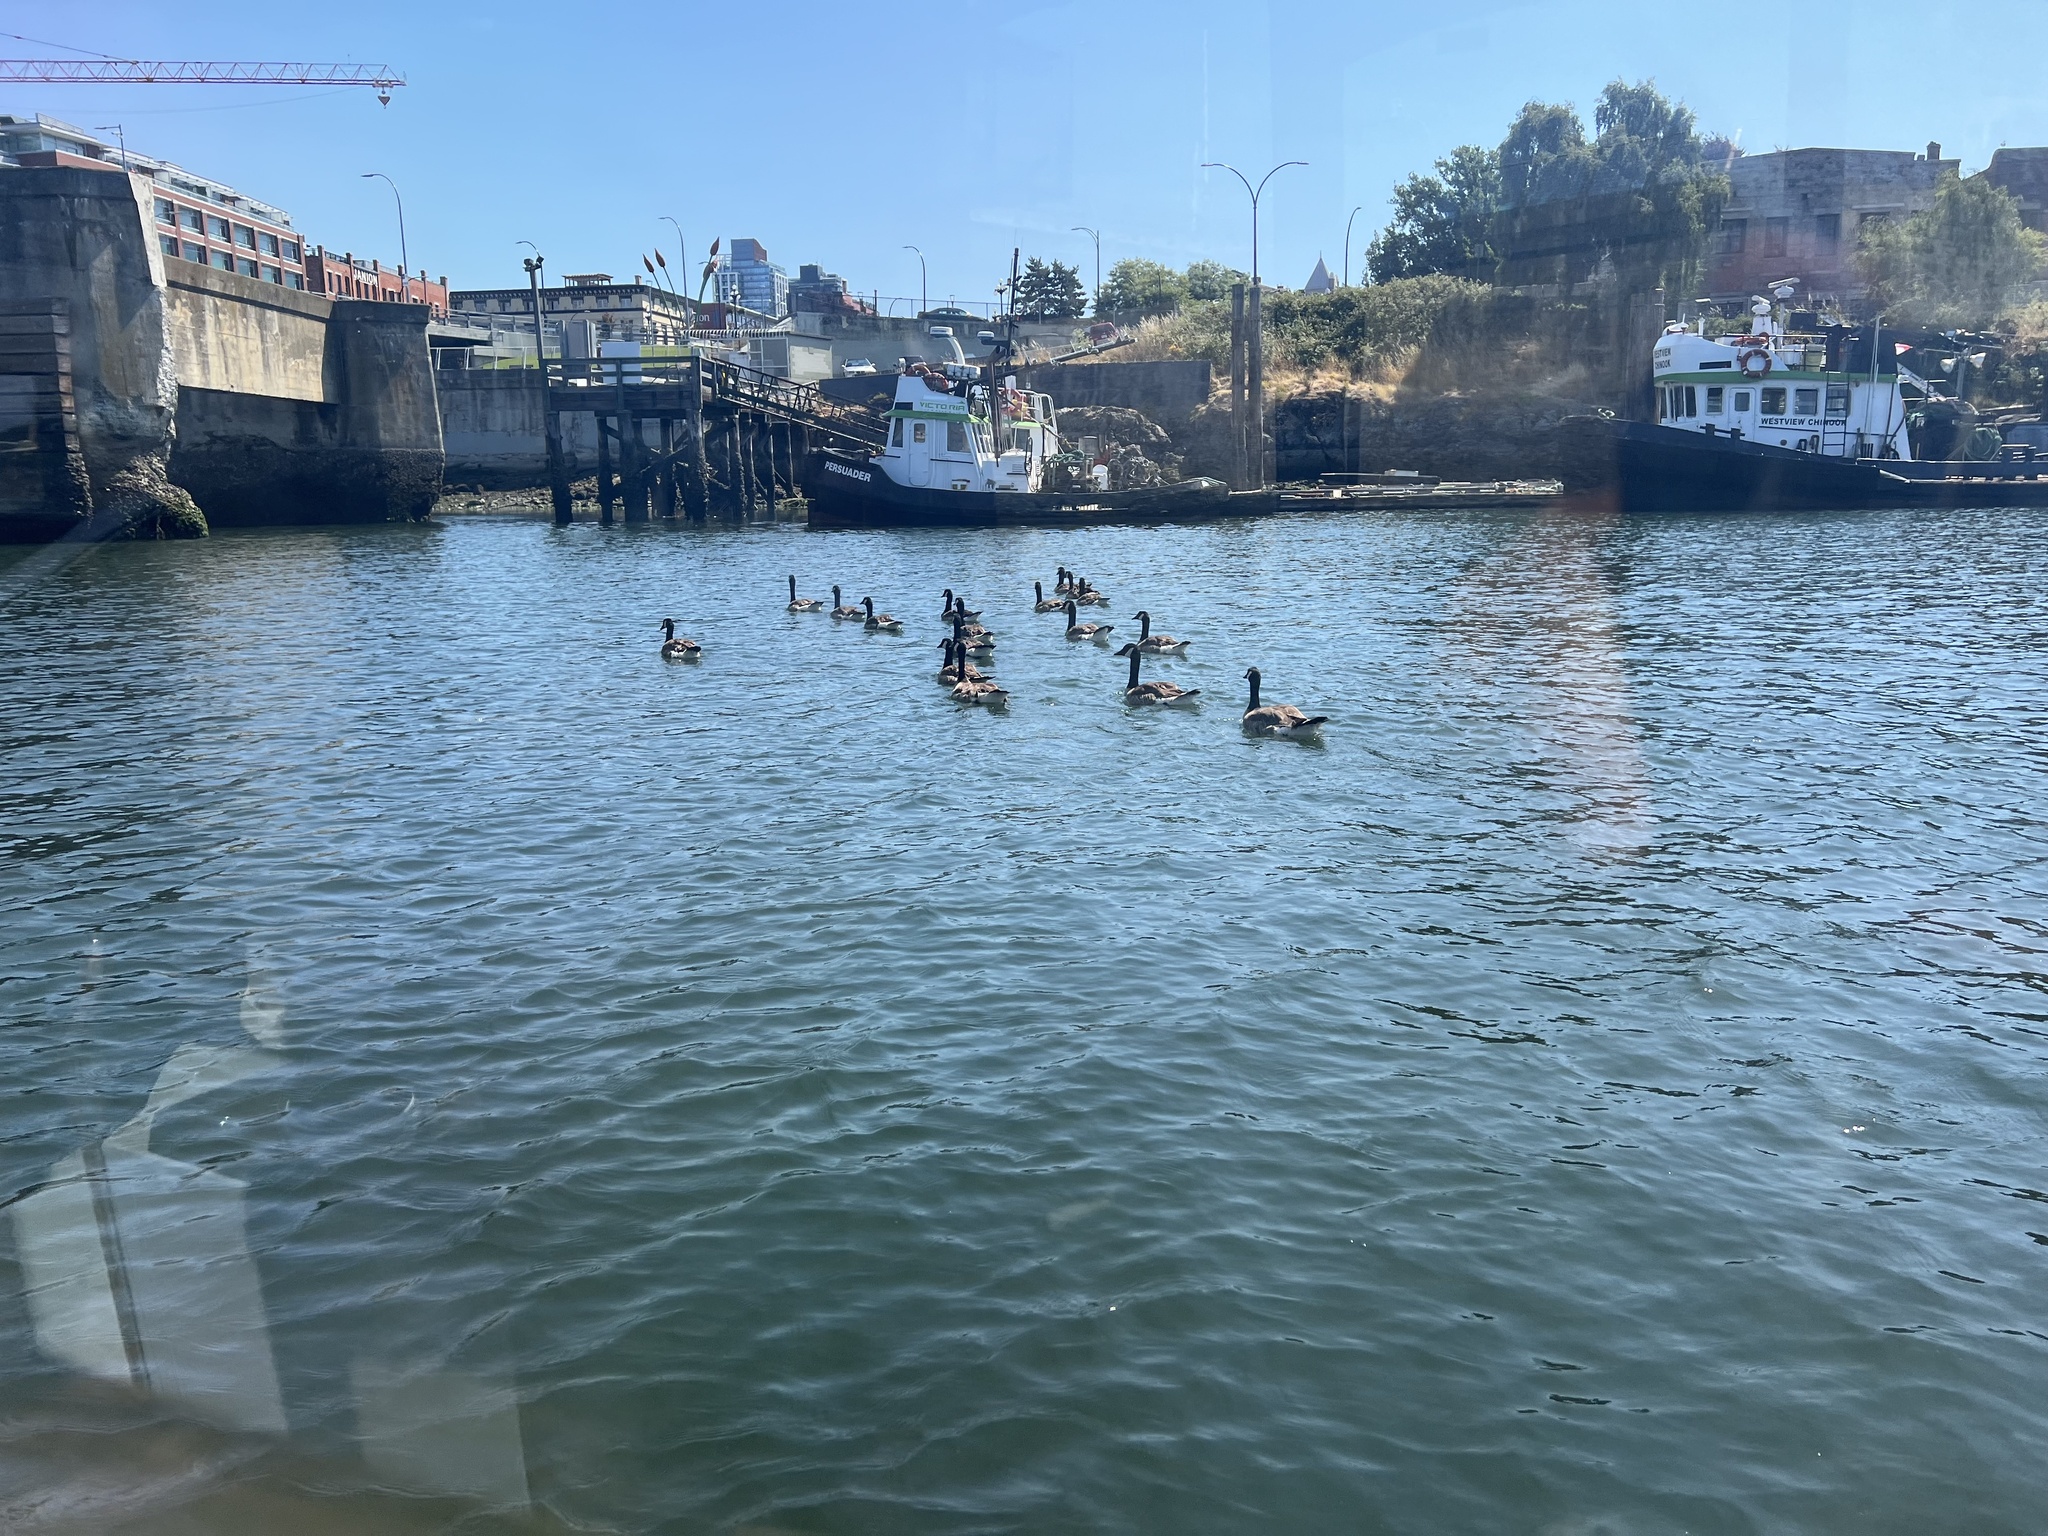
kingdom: Animalia
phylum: Chordata
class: Aves
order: Anseriformes
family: Anatidae
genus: Branta
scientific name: Branta canadensis
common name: Canada goose
